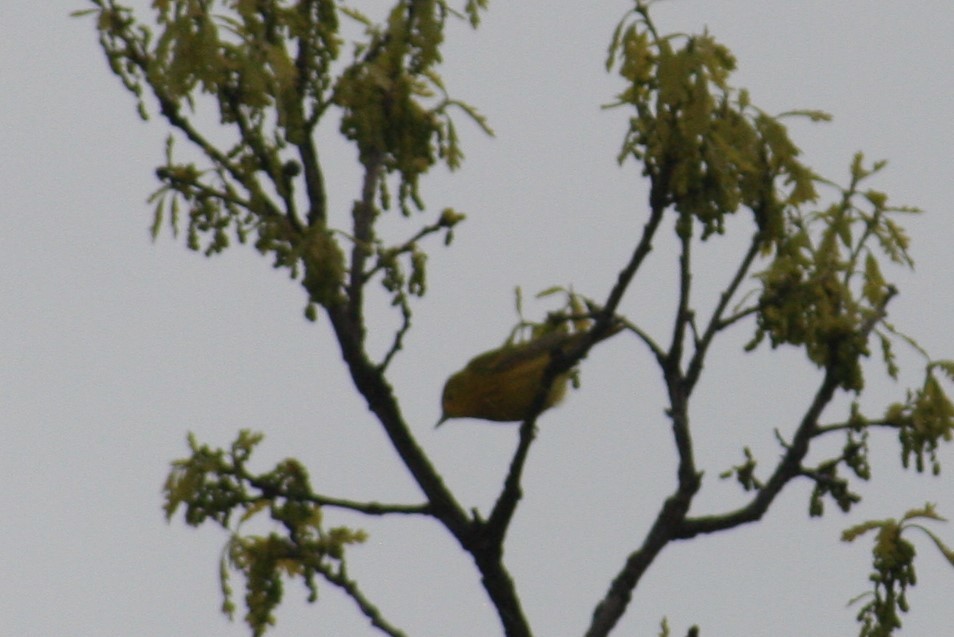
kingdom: Animalia
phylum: Chordata
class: Aves
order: Passeriformes
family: Parulidae
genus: Setophaga
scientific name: Setophaga petechia
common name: Yellow warbler
